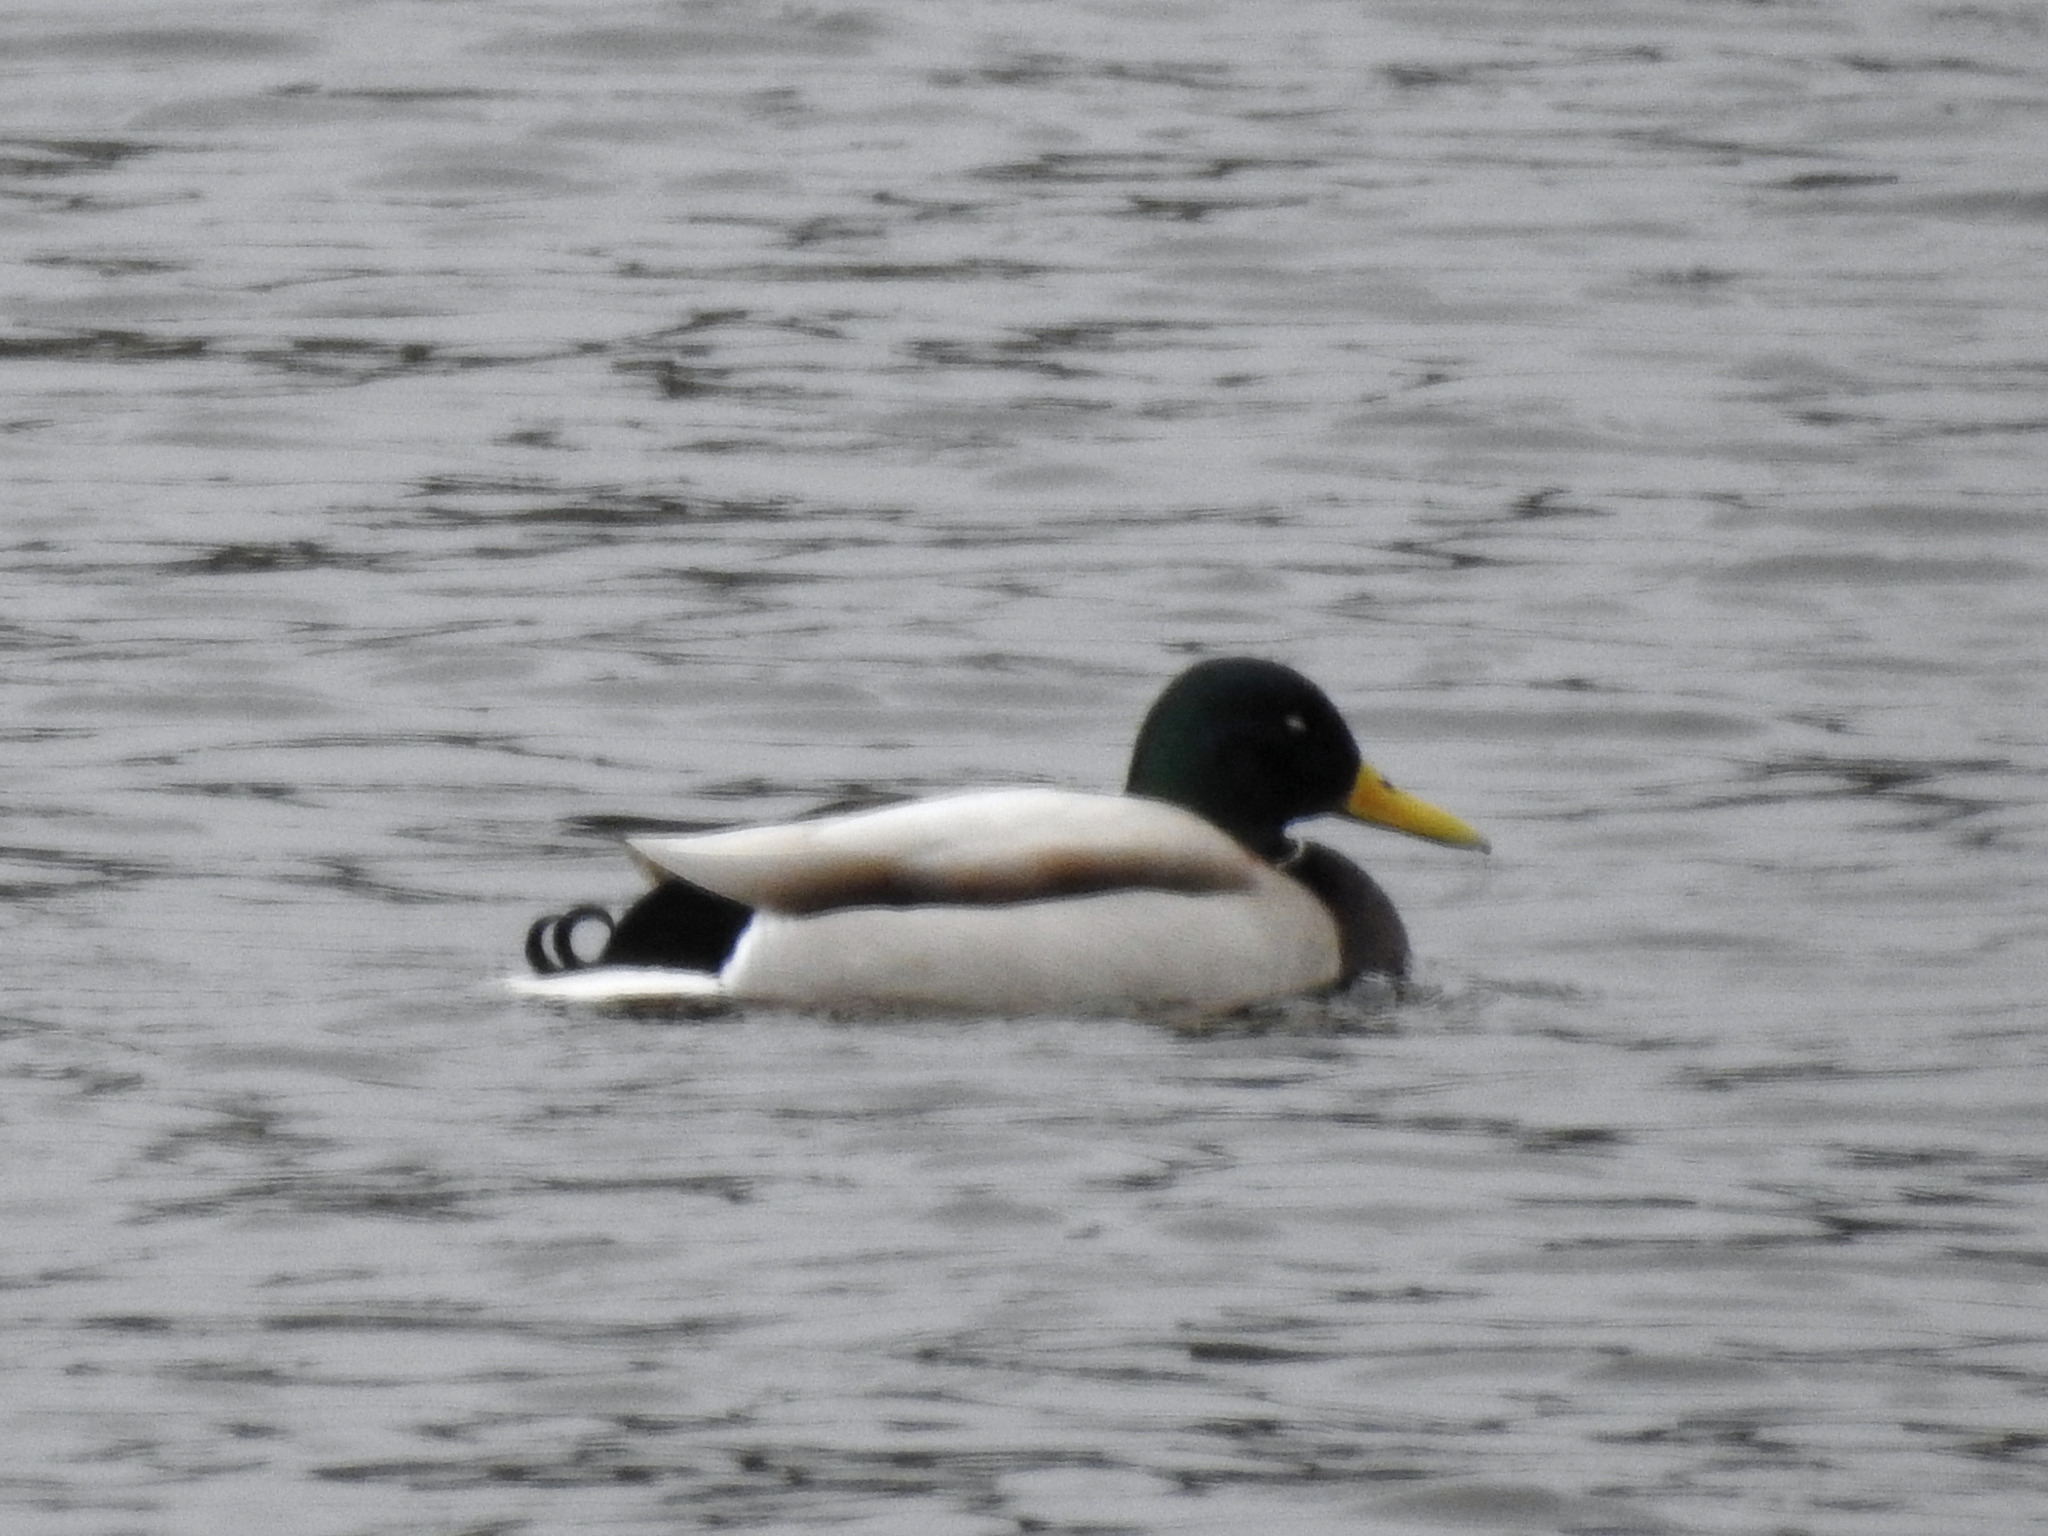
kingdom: Animalia
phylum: Chordata
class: Aves
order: Anseriformes
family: Anatidae
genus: Anas
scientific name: Anas platyrhynchos
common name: Mallard
